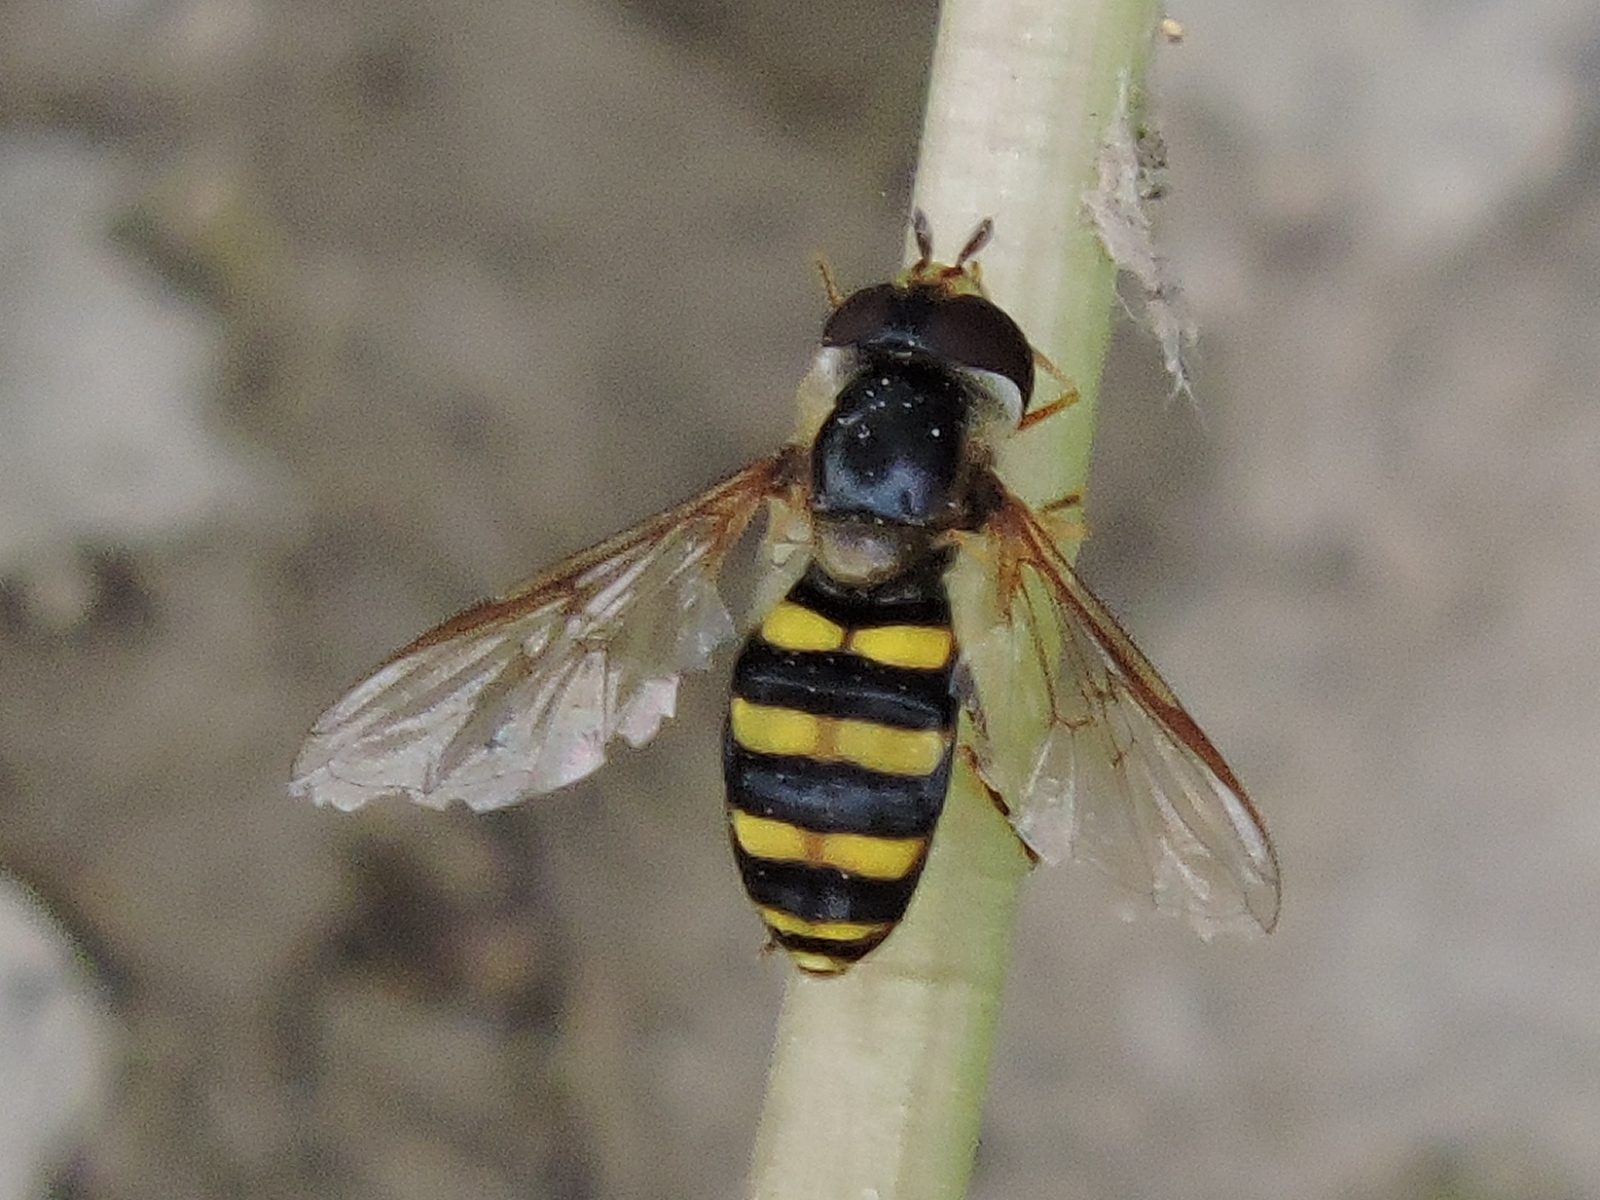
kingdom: Animalia
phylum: Arthropoda
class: Insecta
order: Diptera
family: Syrphidae
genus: Eupeodes
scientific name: Eupeodes
